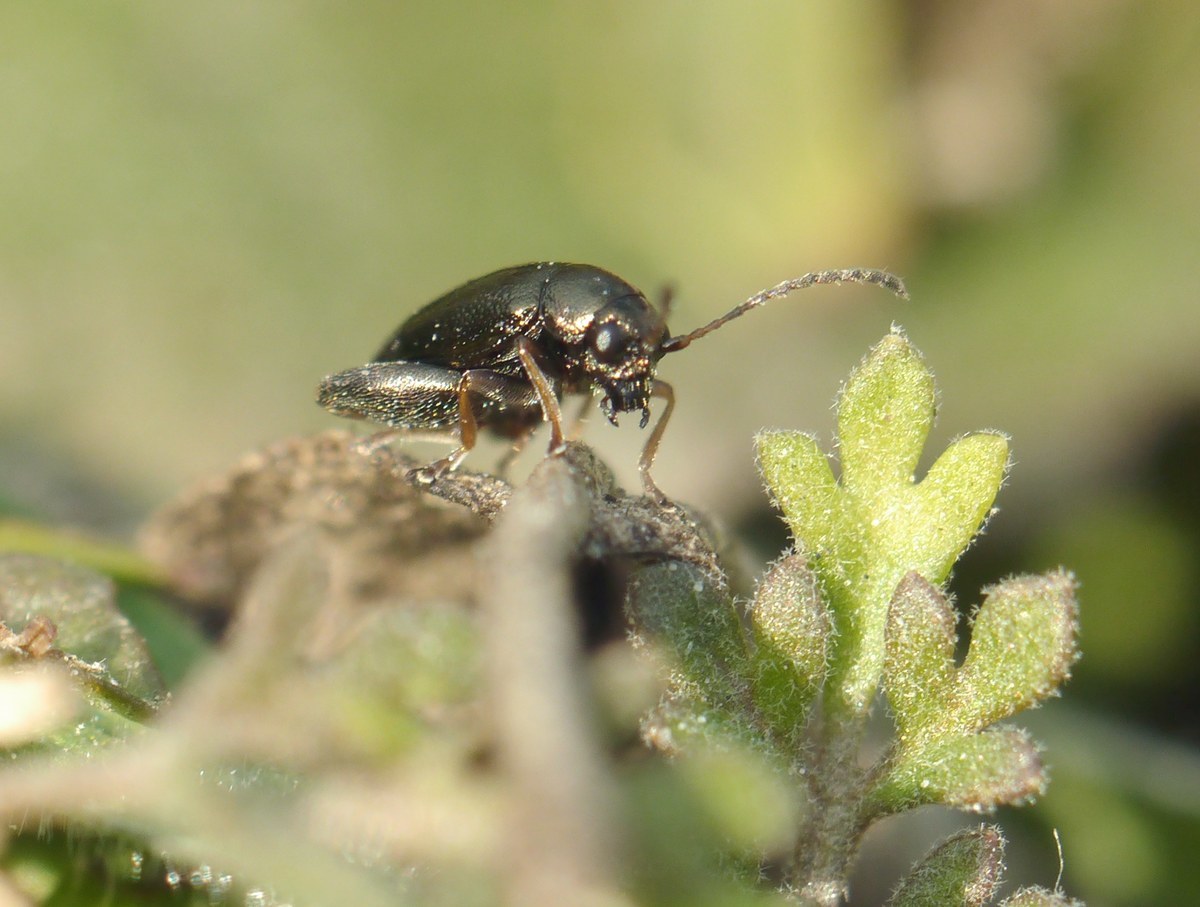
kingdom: Animalia
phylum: Arthropoda
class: Insecta
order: Coleoptera
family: Chrysomelidae
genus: Longitarsus
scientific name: Longitarsus echii
